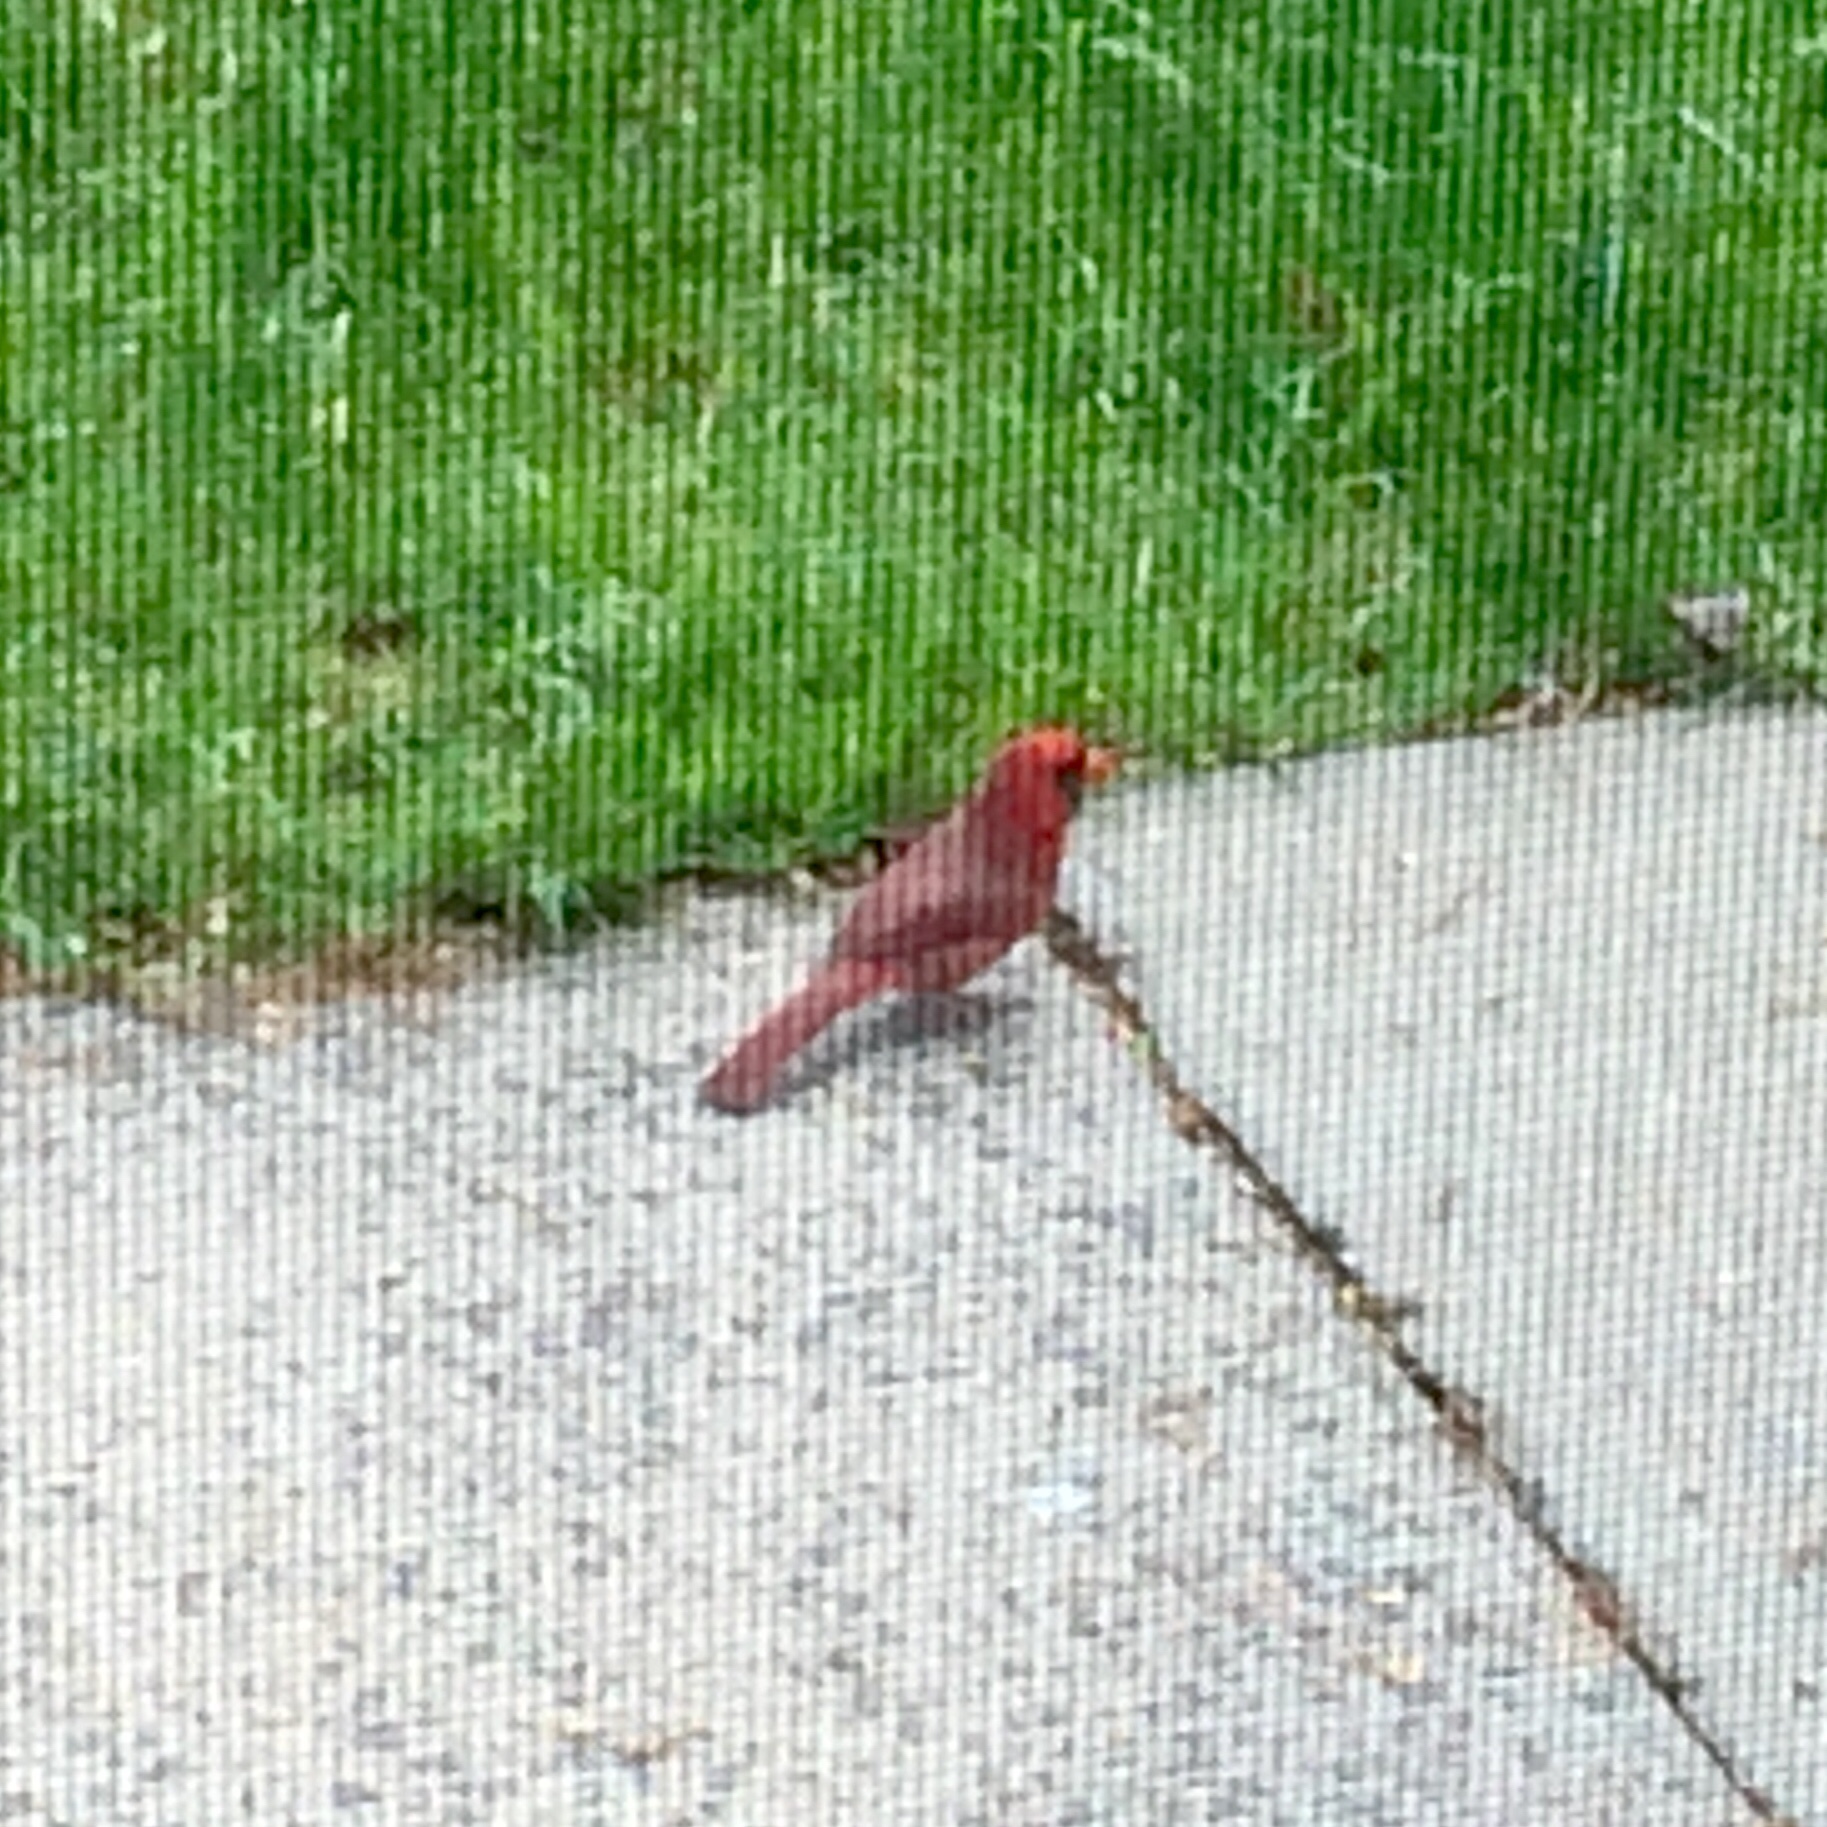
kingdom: Animalia
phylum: Chordata
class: Aves
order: Passeriformes
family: Cardinalidae
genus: Cardinalis
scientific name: Cardinalis cardinalis
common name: Northern cardinal
